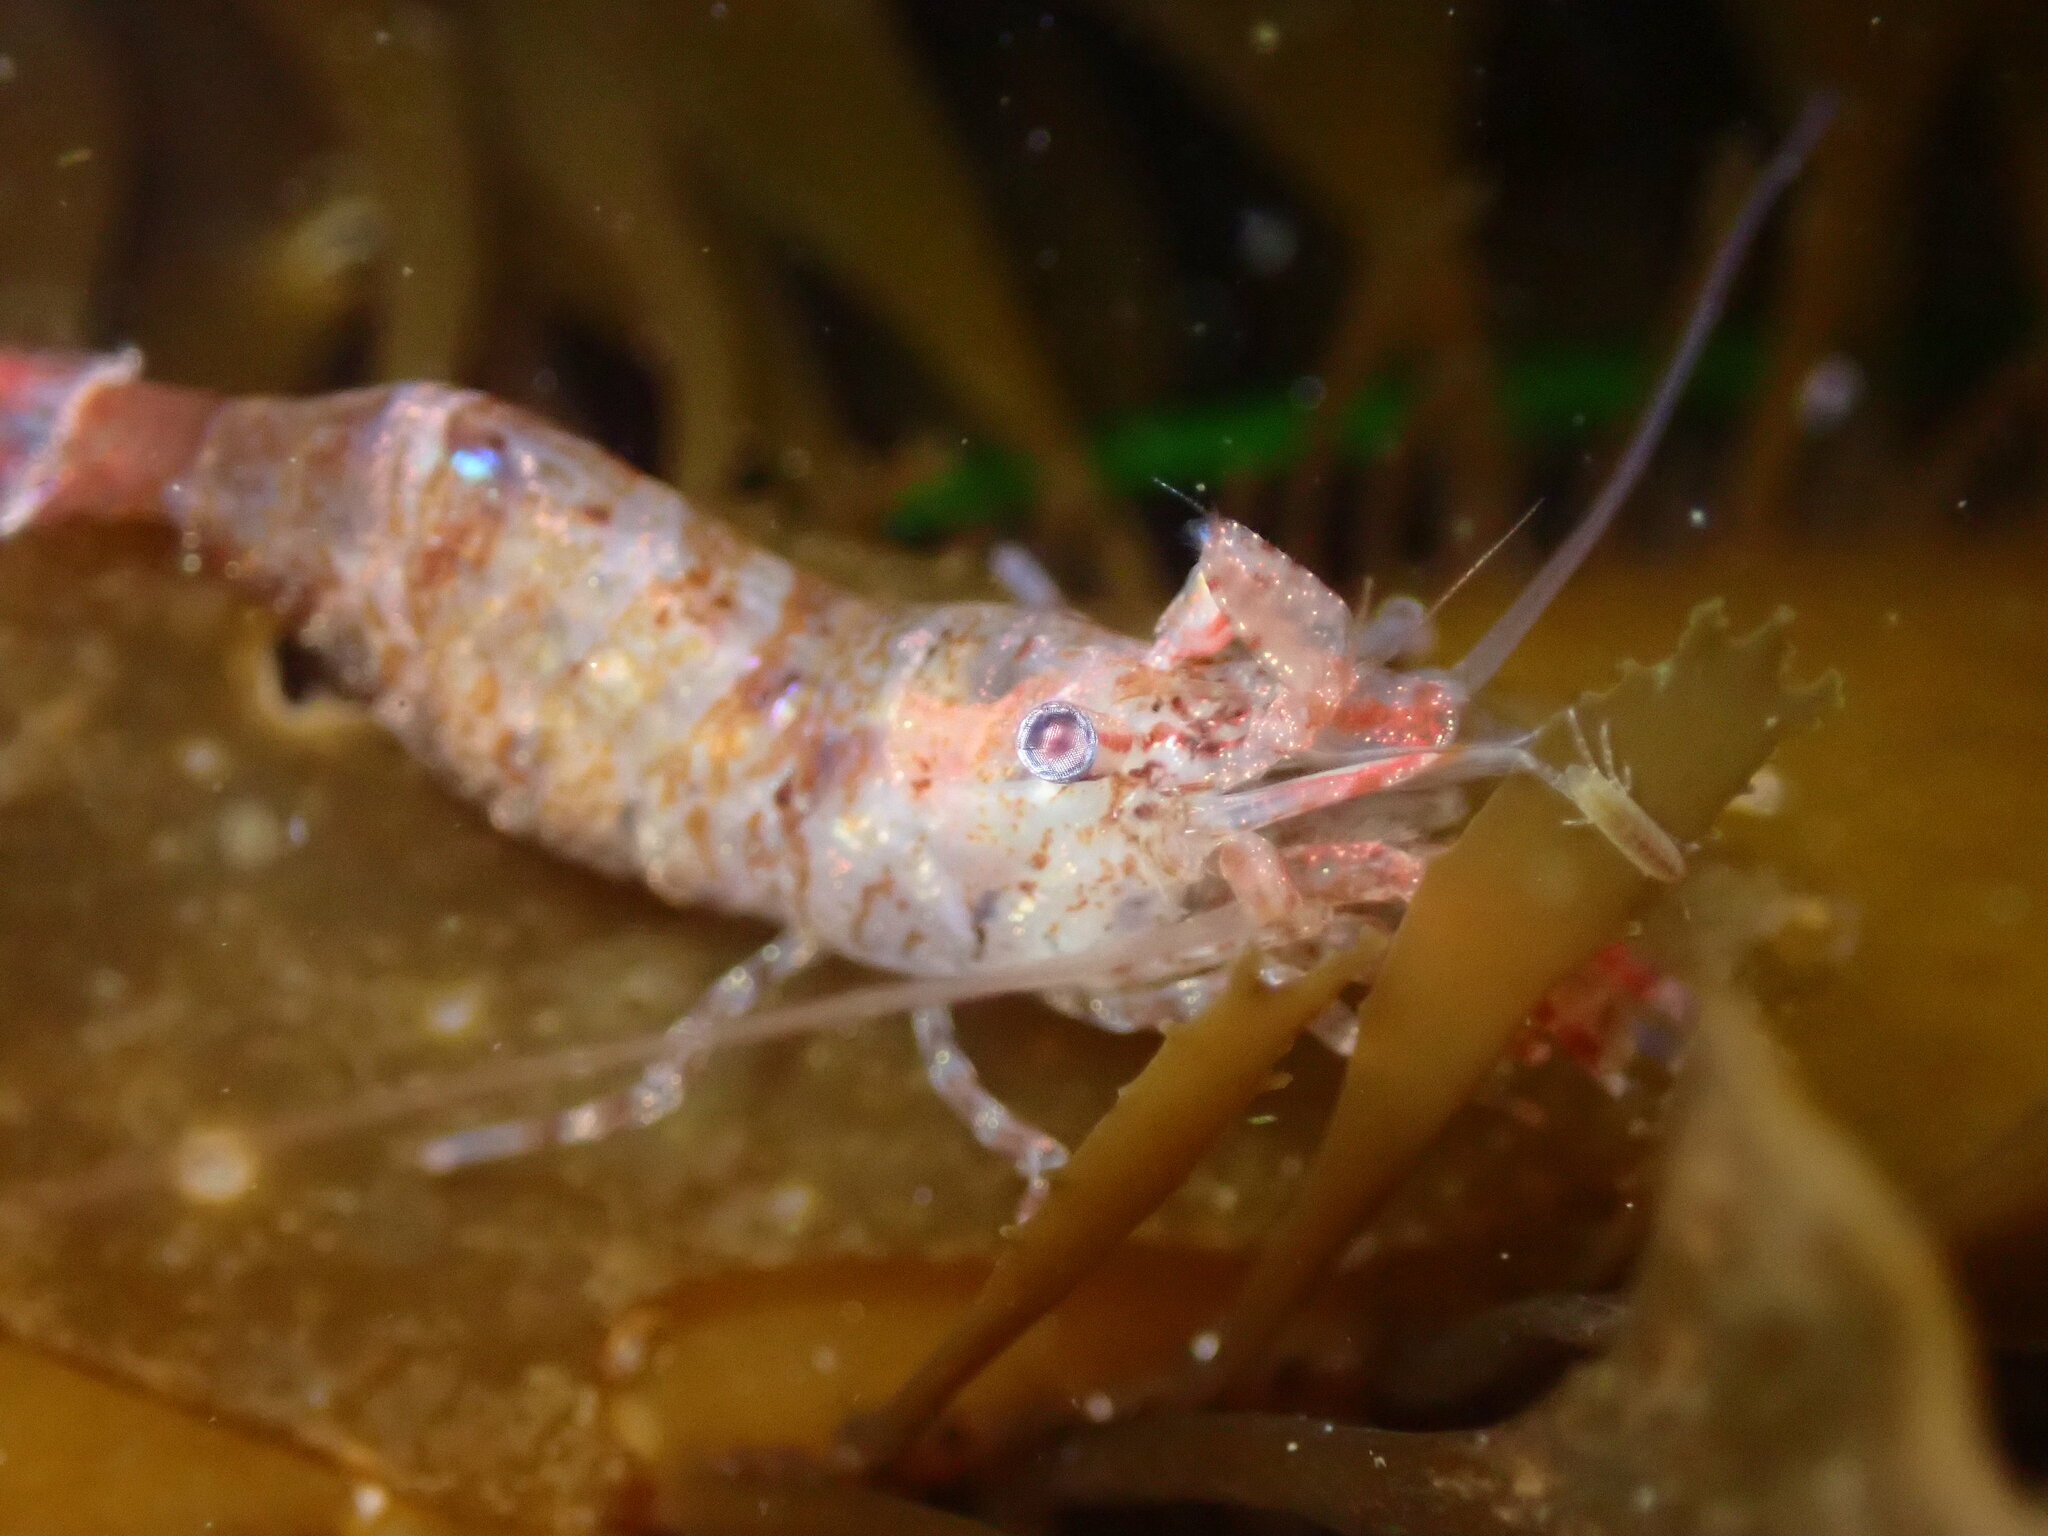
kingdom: Animalia
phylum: Arthropoda
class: Malacostraca
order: Decapoda
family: Thoridae
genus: Heptacarpus
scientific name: Heptacarpus palpator
